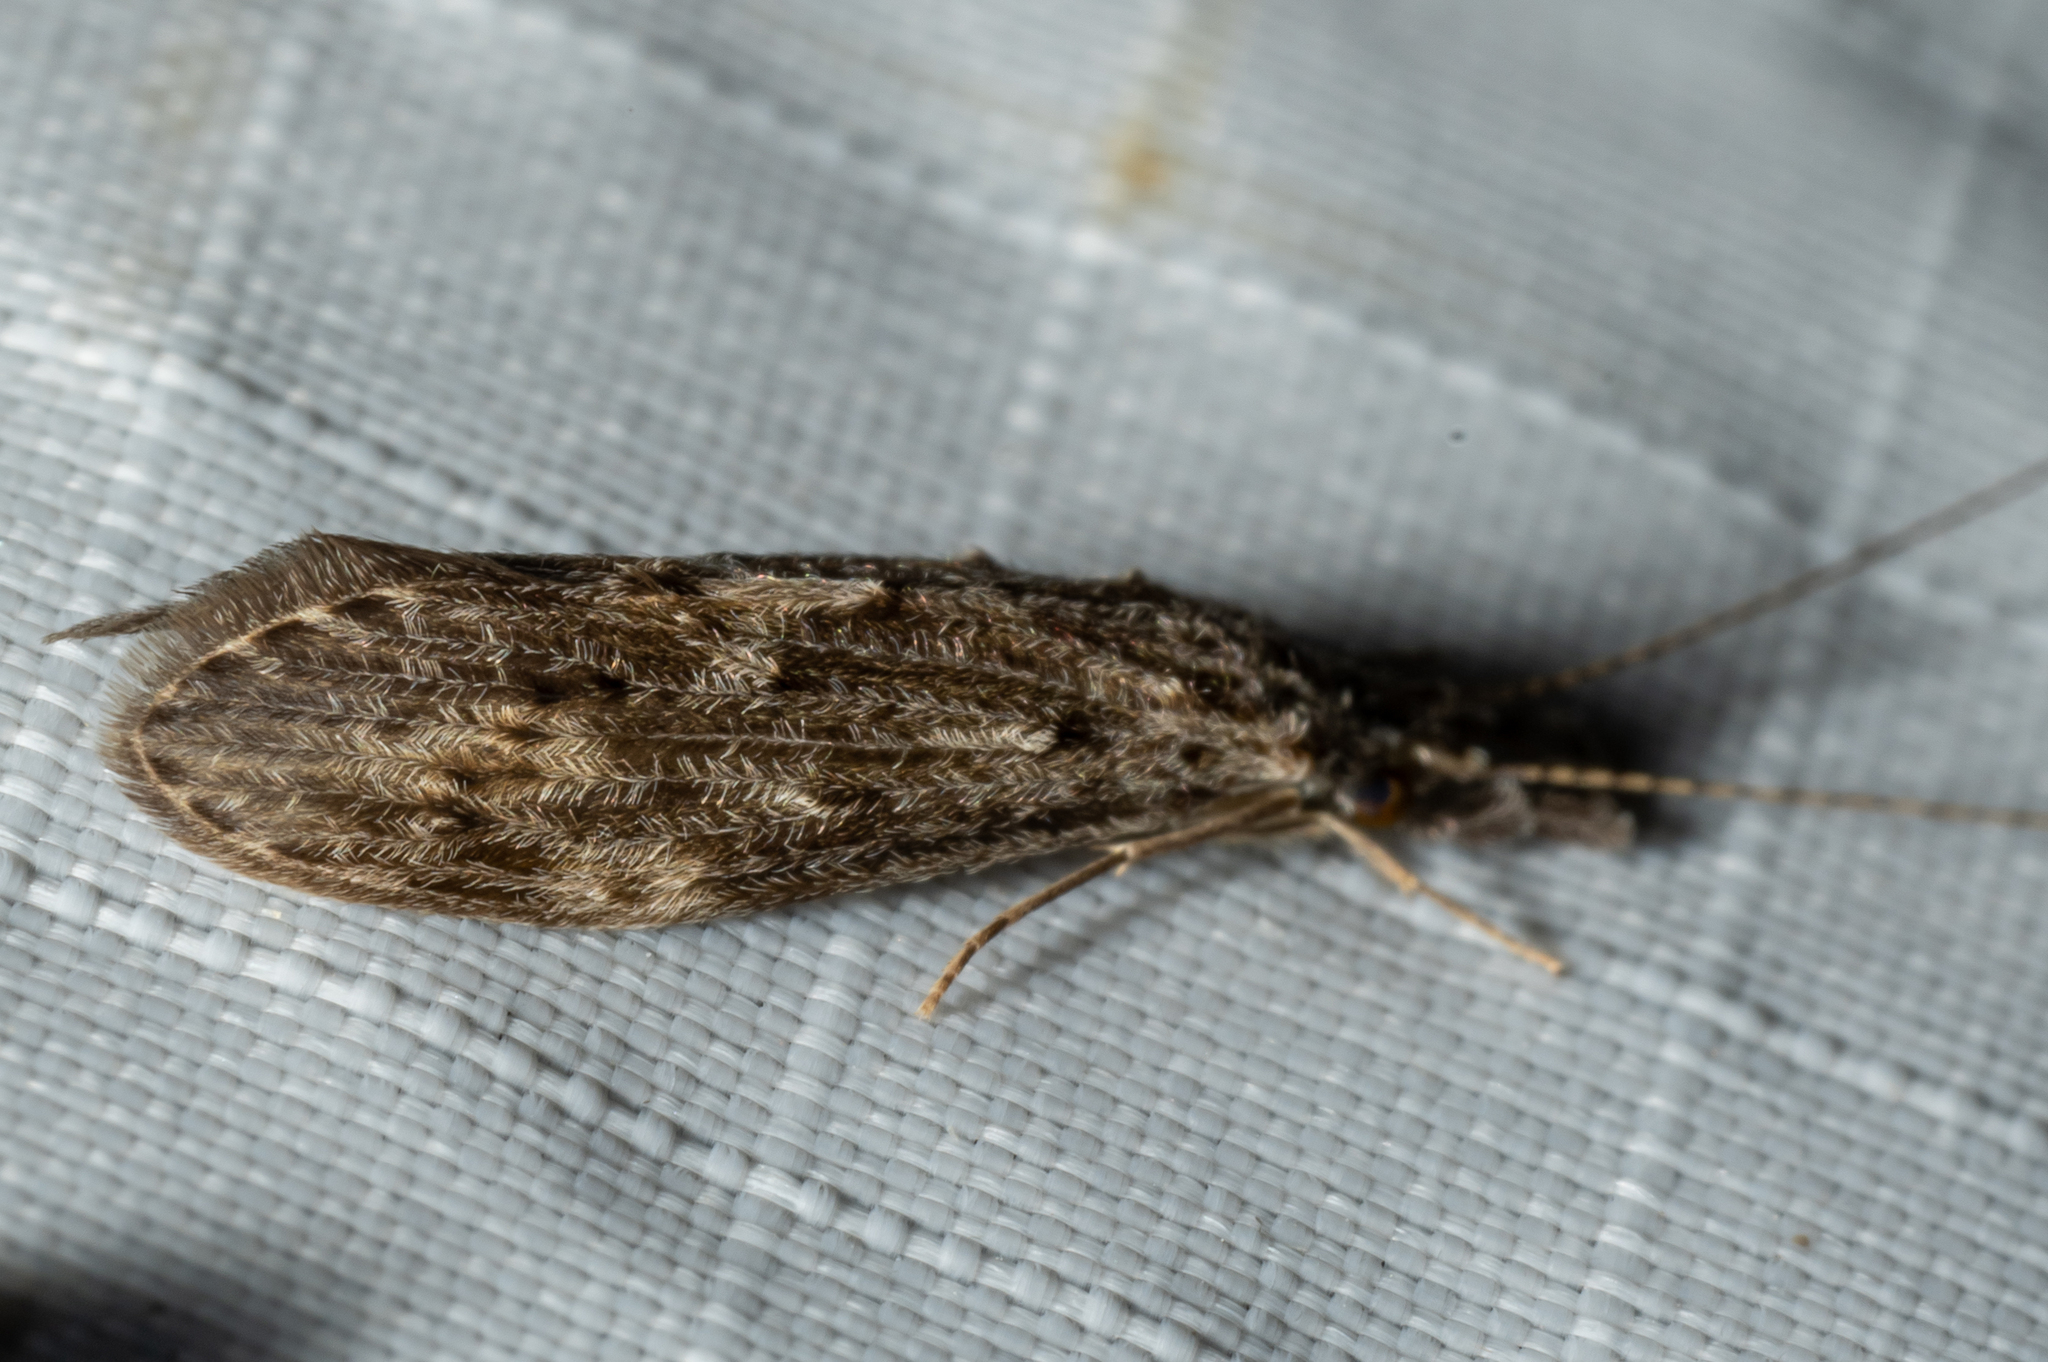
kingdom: Animalia
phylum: Arthropoda
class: Insecta
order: Trichoptera
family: Leptoceridae
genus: Oecetis
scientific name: Oecetis cinerascens
